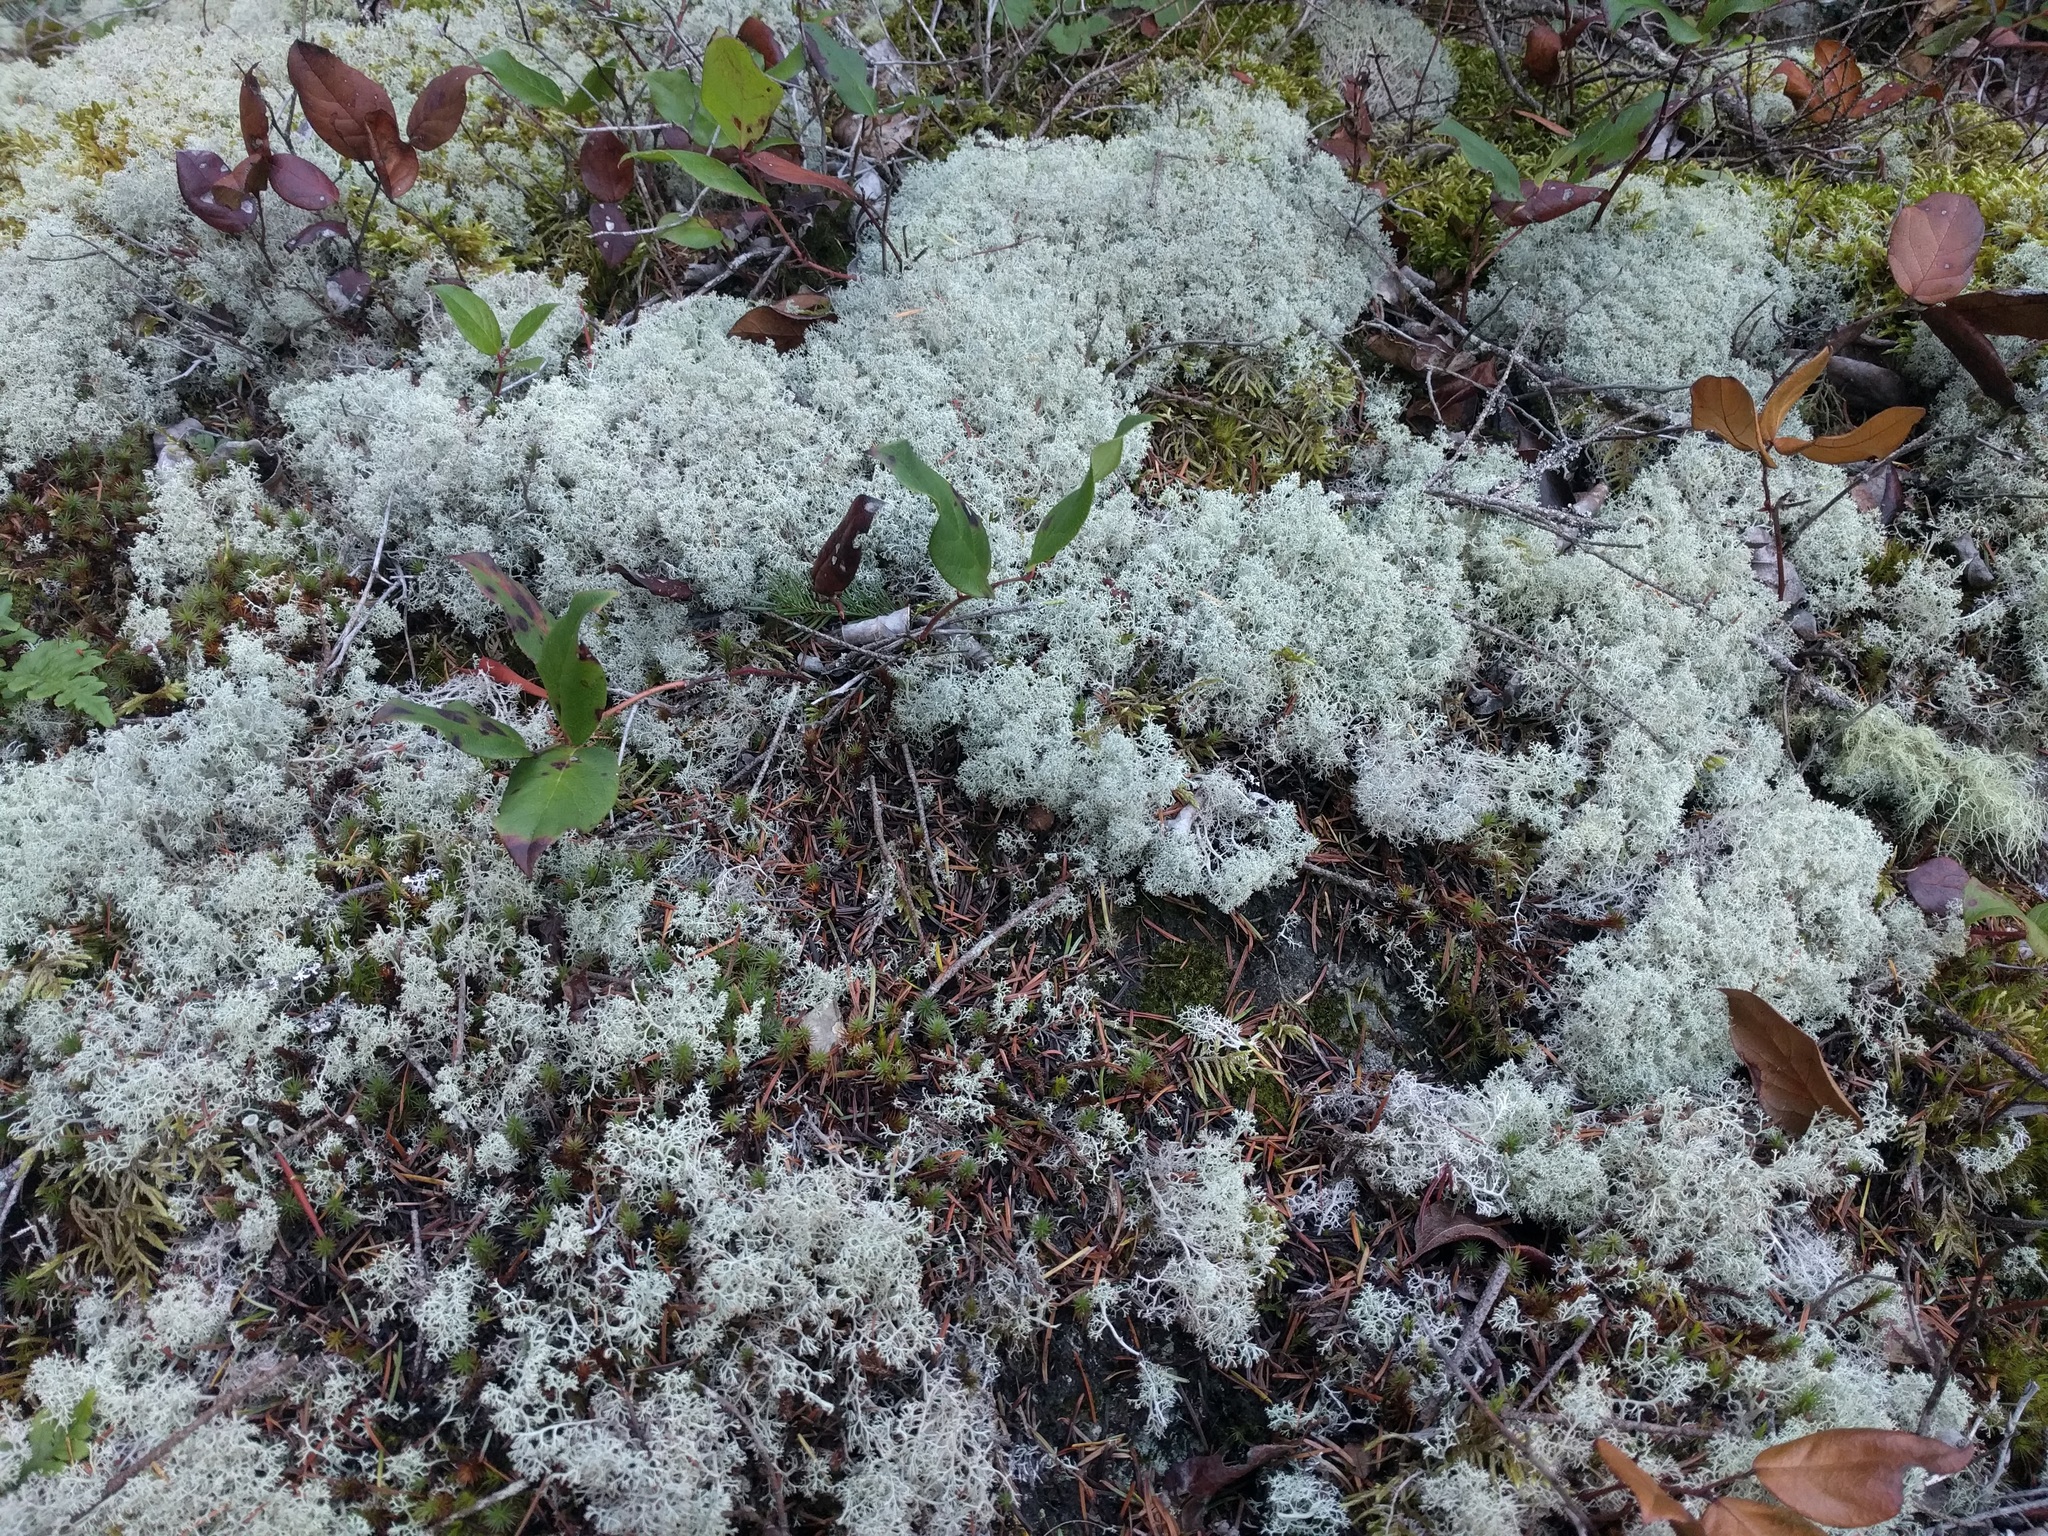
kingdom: Fungi
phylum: Ascomycota
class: Lecanoromycetes
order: Lecanorales
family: Cladoniaceae
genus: Cladonia
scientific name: Cladonia rangiferina
